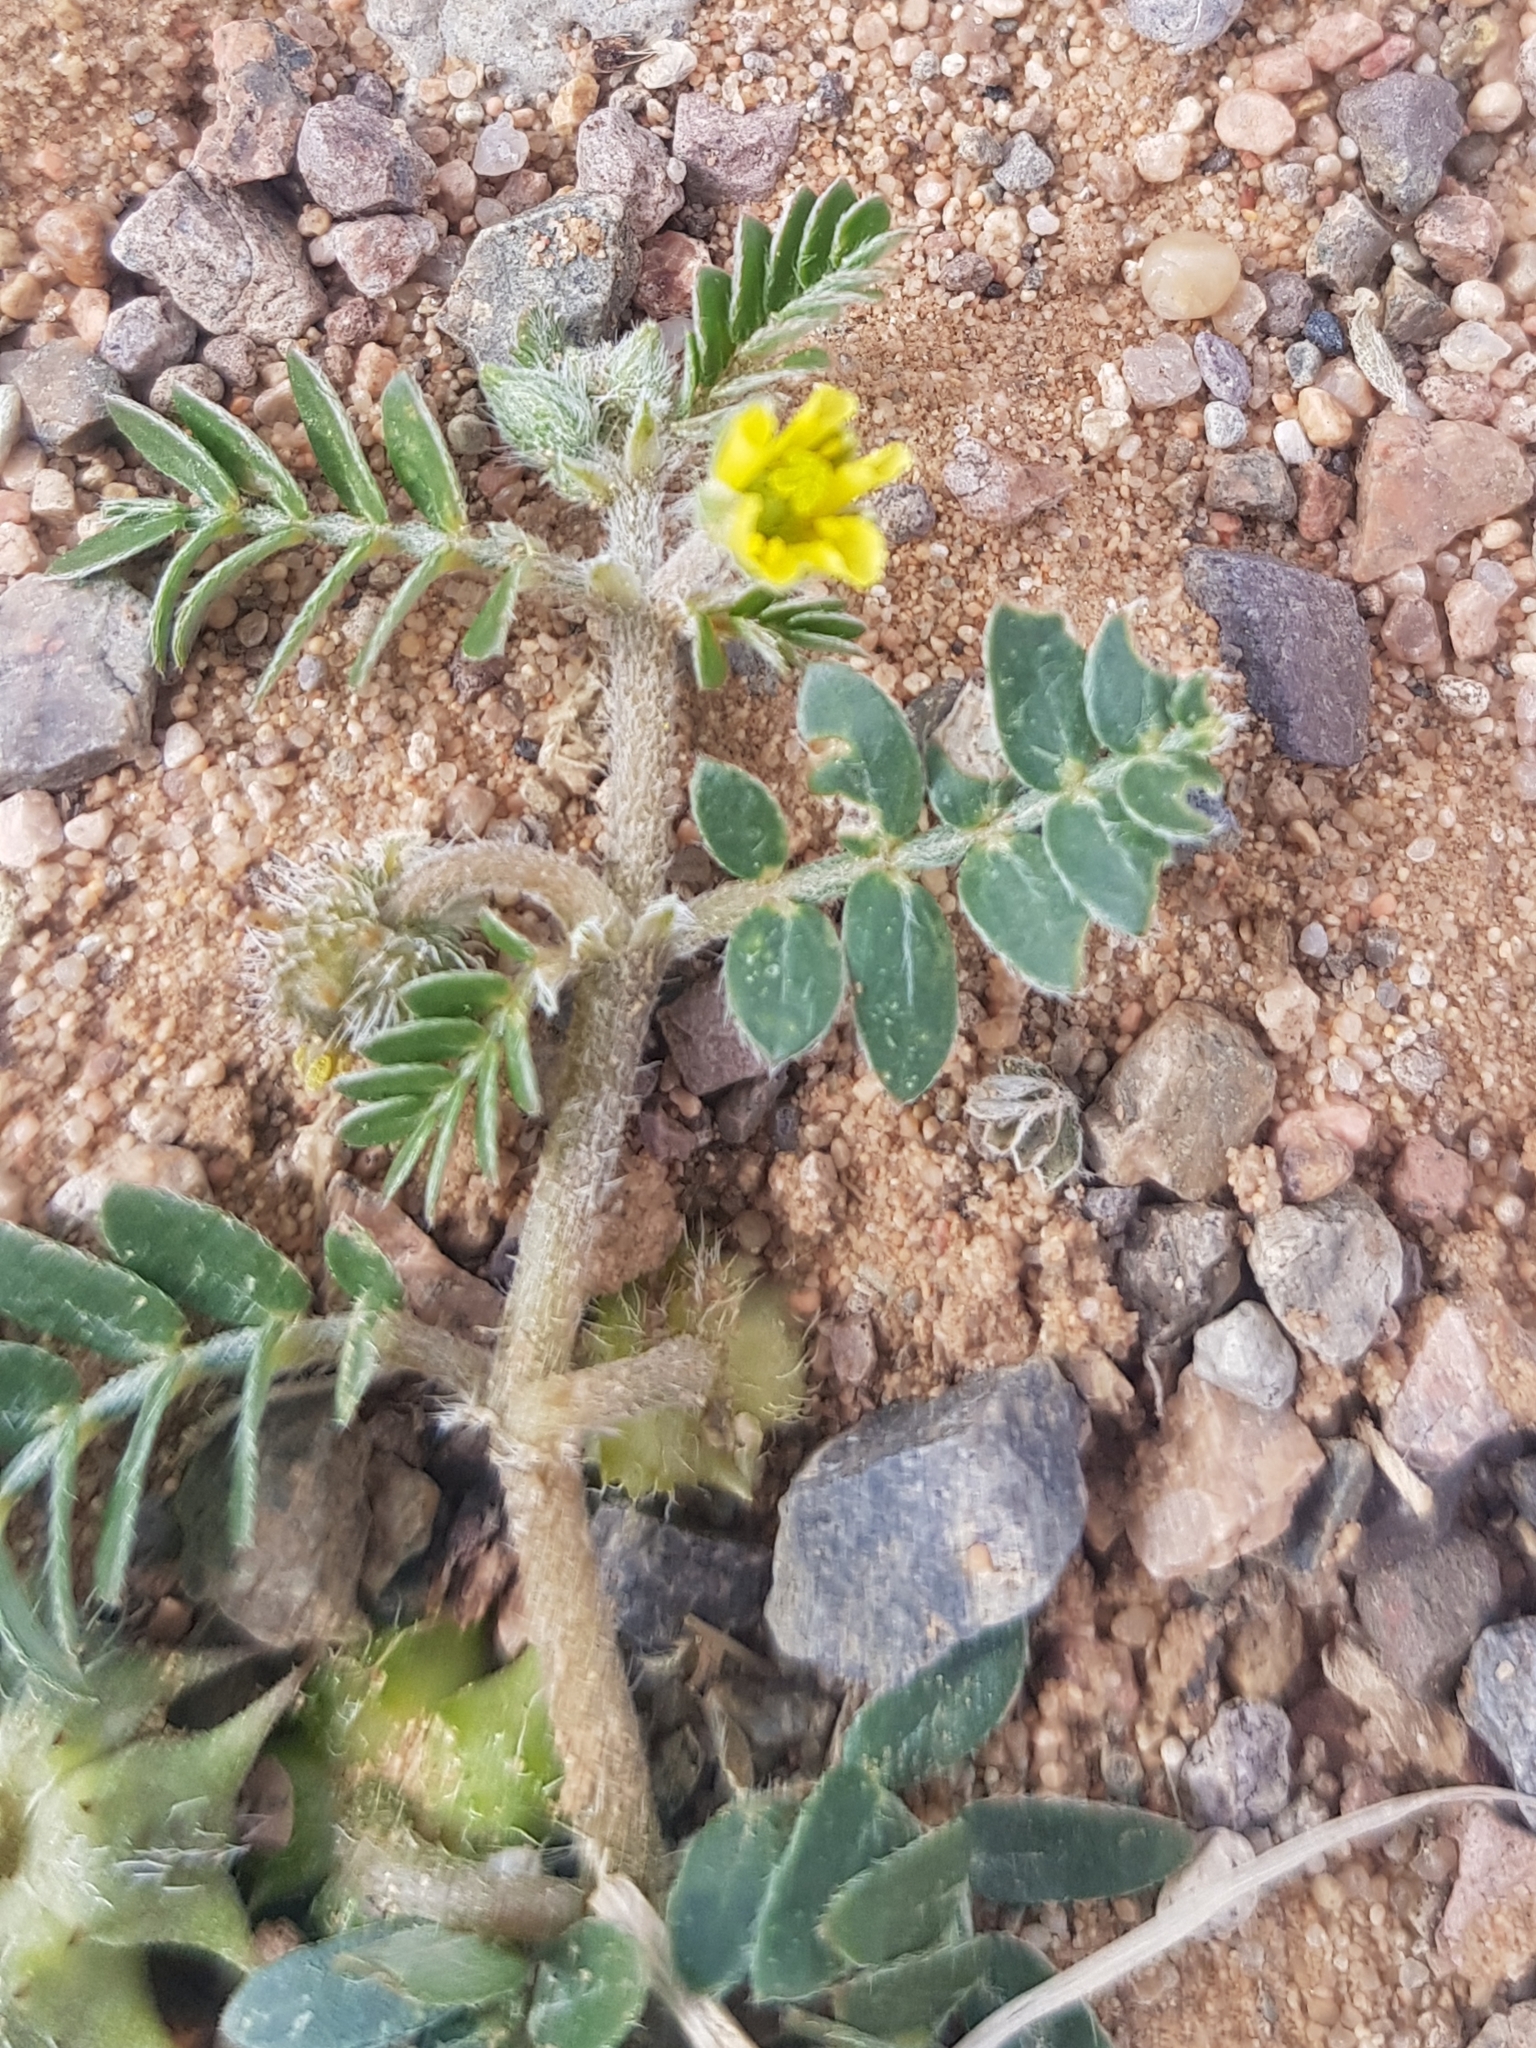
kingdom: Plantae
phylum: Tracheophyta
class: Magnoliopsida
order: Zygophyllales
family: Zygophyllaceae
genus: Tribulus
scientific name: Tribulus terrestris
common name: Puncturevine
